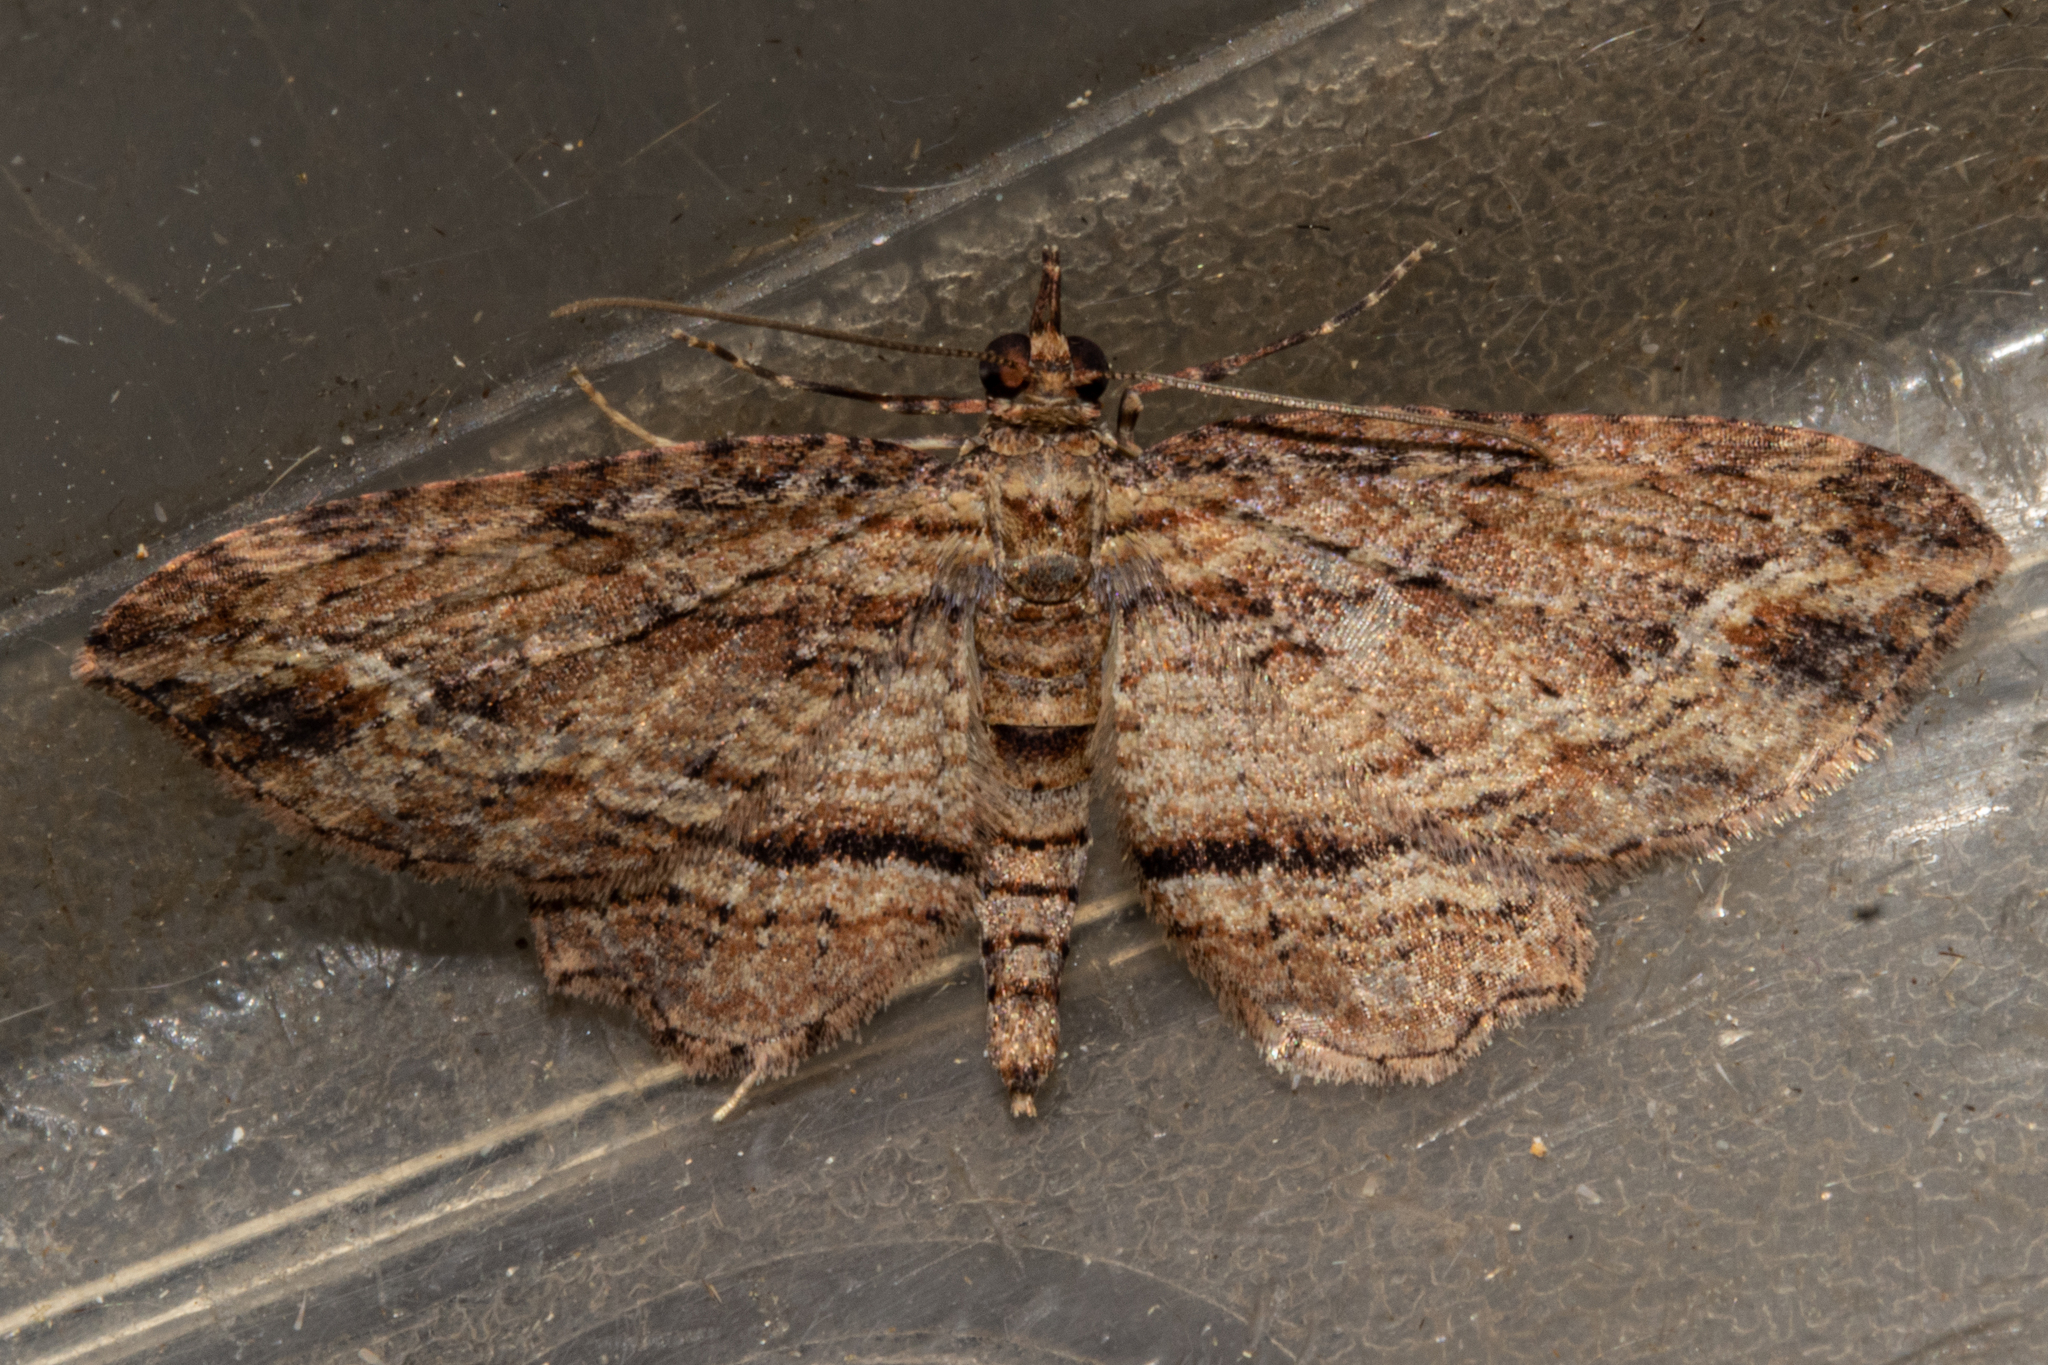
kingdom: Animalia
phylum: Arthropoda
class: Insecta
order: Lepidoptera
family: Geometridae
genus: Chloroclystis
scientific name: Chloroclystis filata
